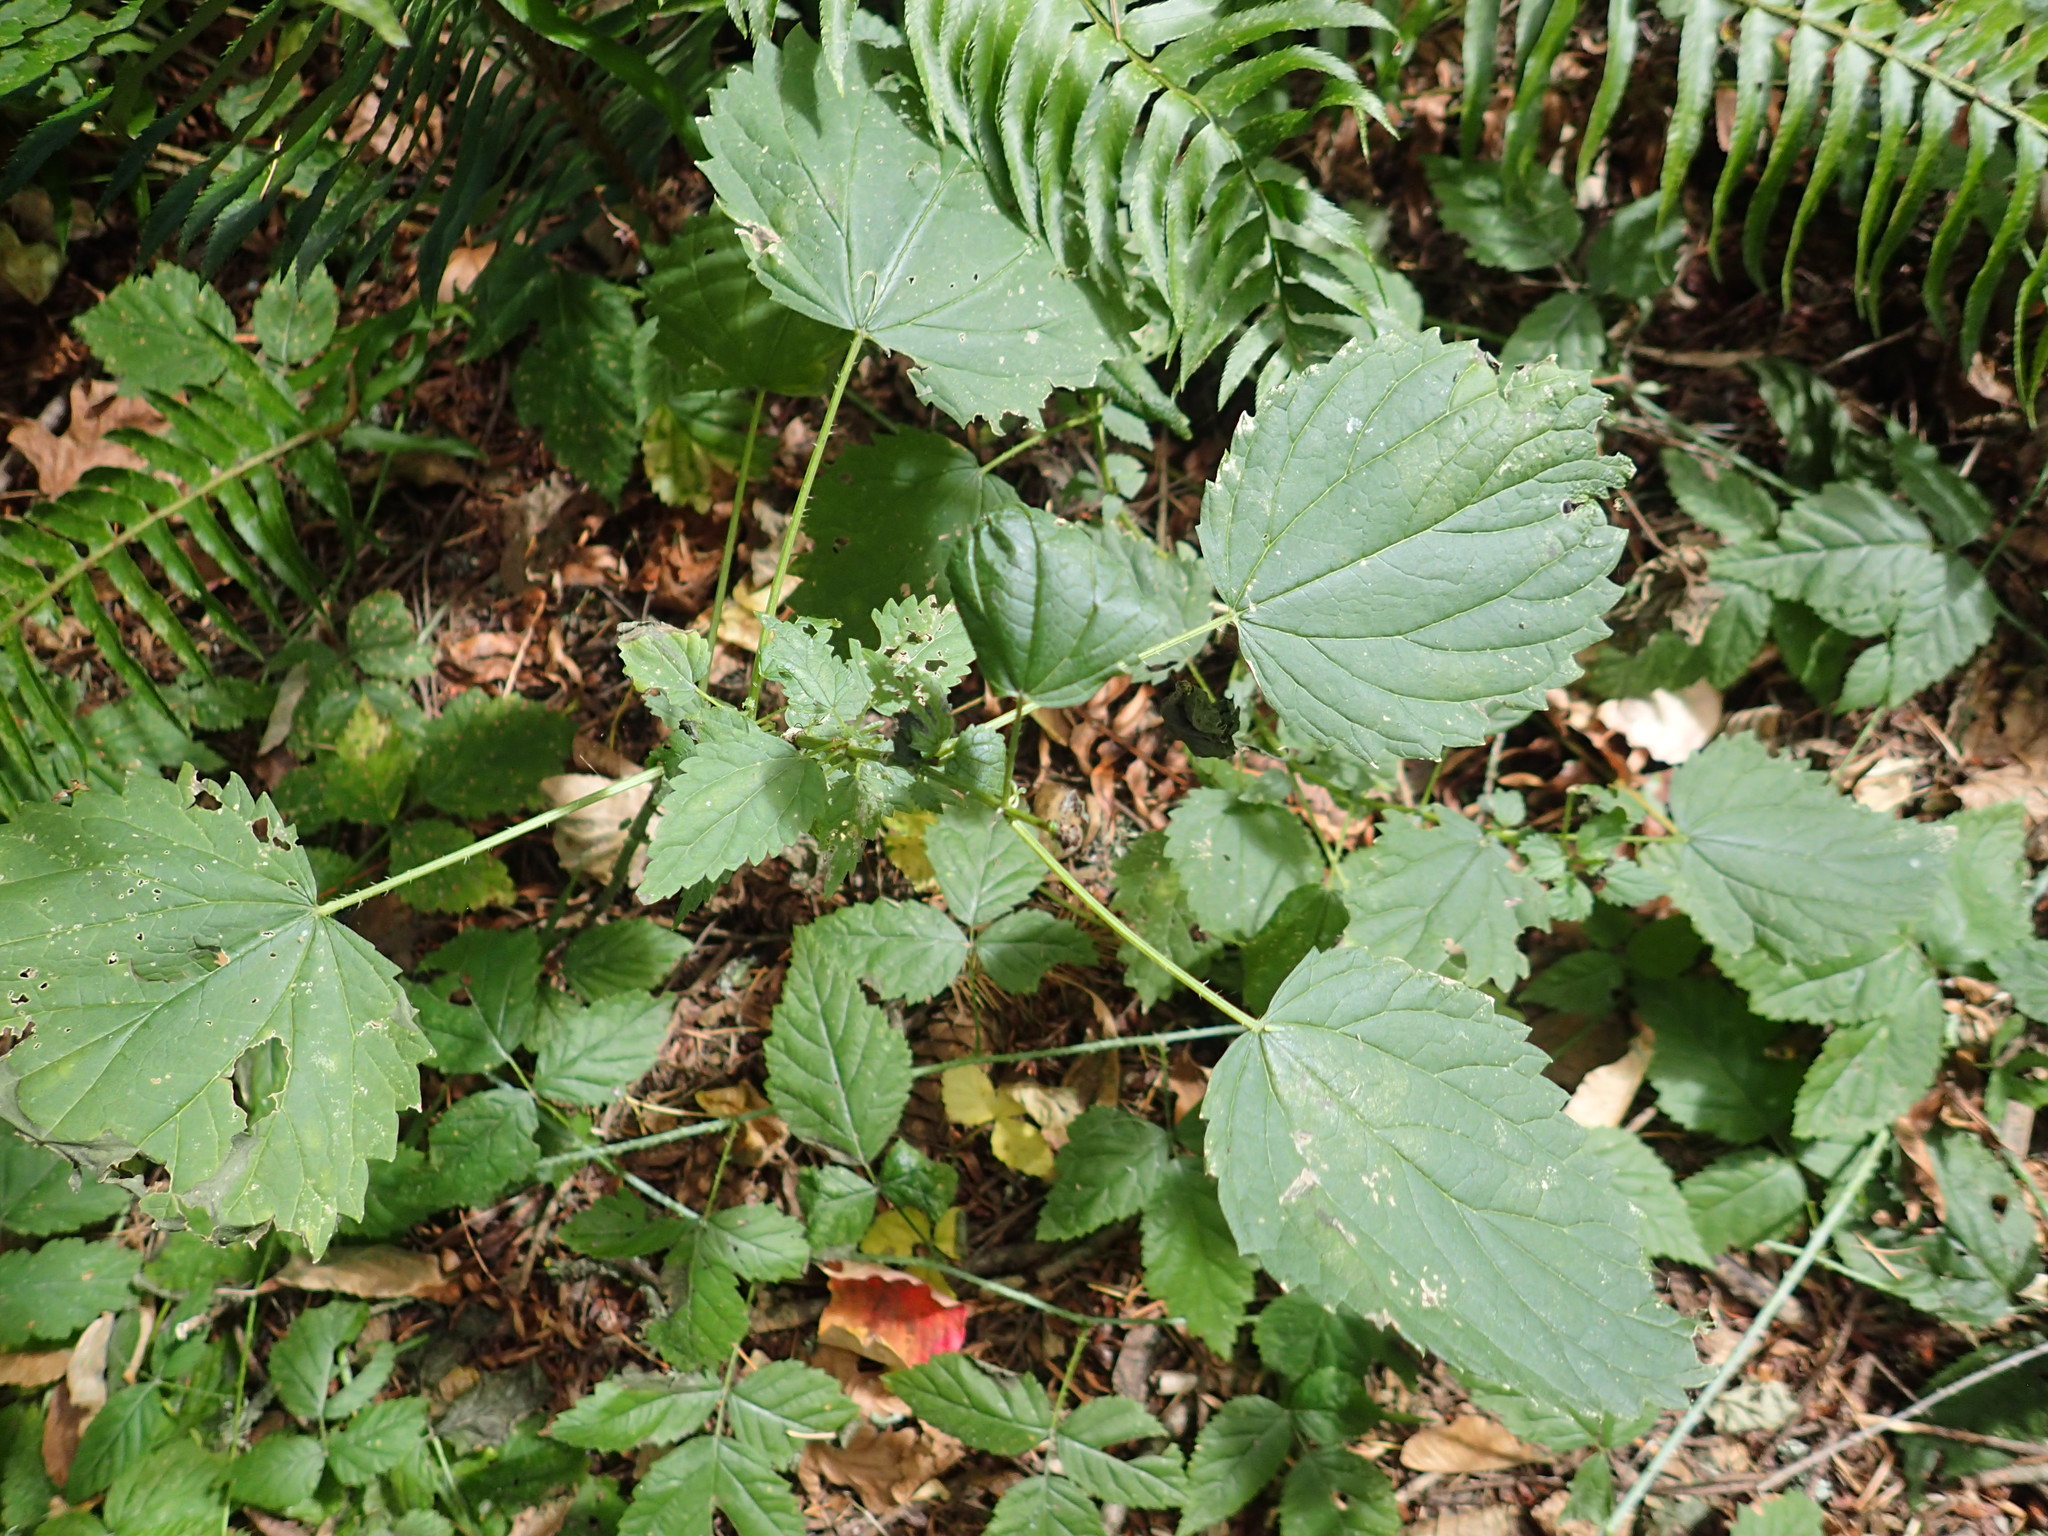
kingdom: Plantae
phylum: Tracheophyta
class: Magnoliopsida
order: Rosales
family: Urticaceae
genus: Urtica
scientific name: Urtica dioica
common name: Common nettle
